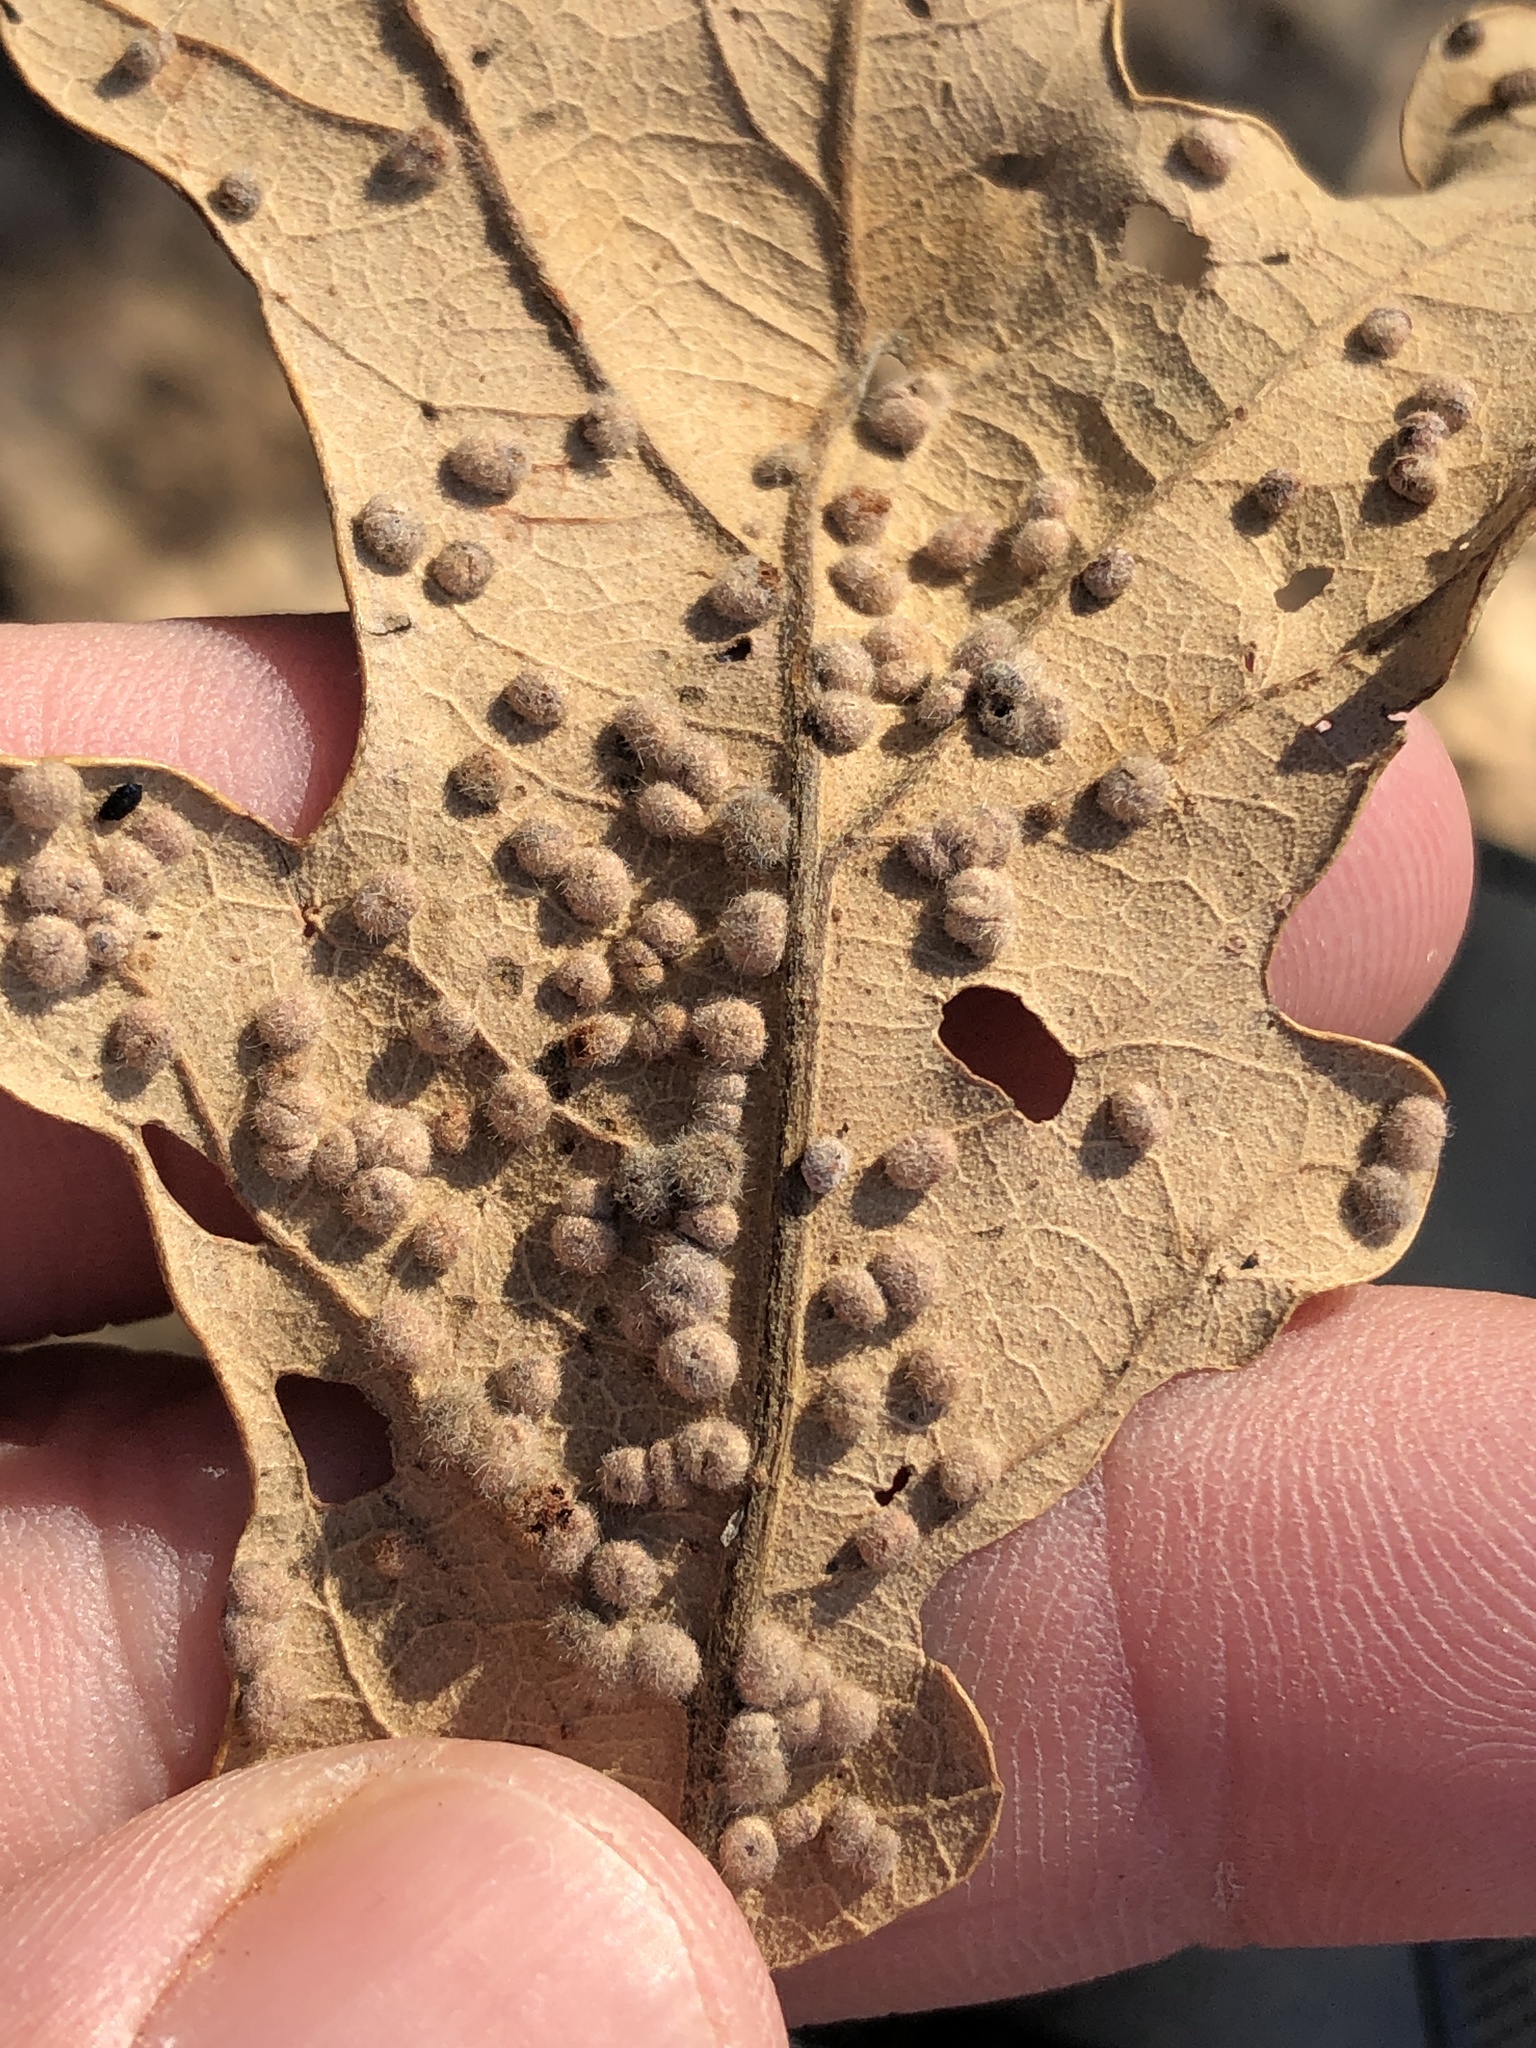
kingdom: Animalia
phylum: Arthropoda
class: Insecta
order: Hymenoptera
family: Cynipidae
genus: Neuroterus
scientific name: Neuroterus quercusverrucarum
